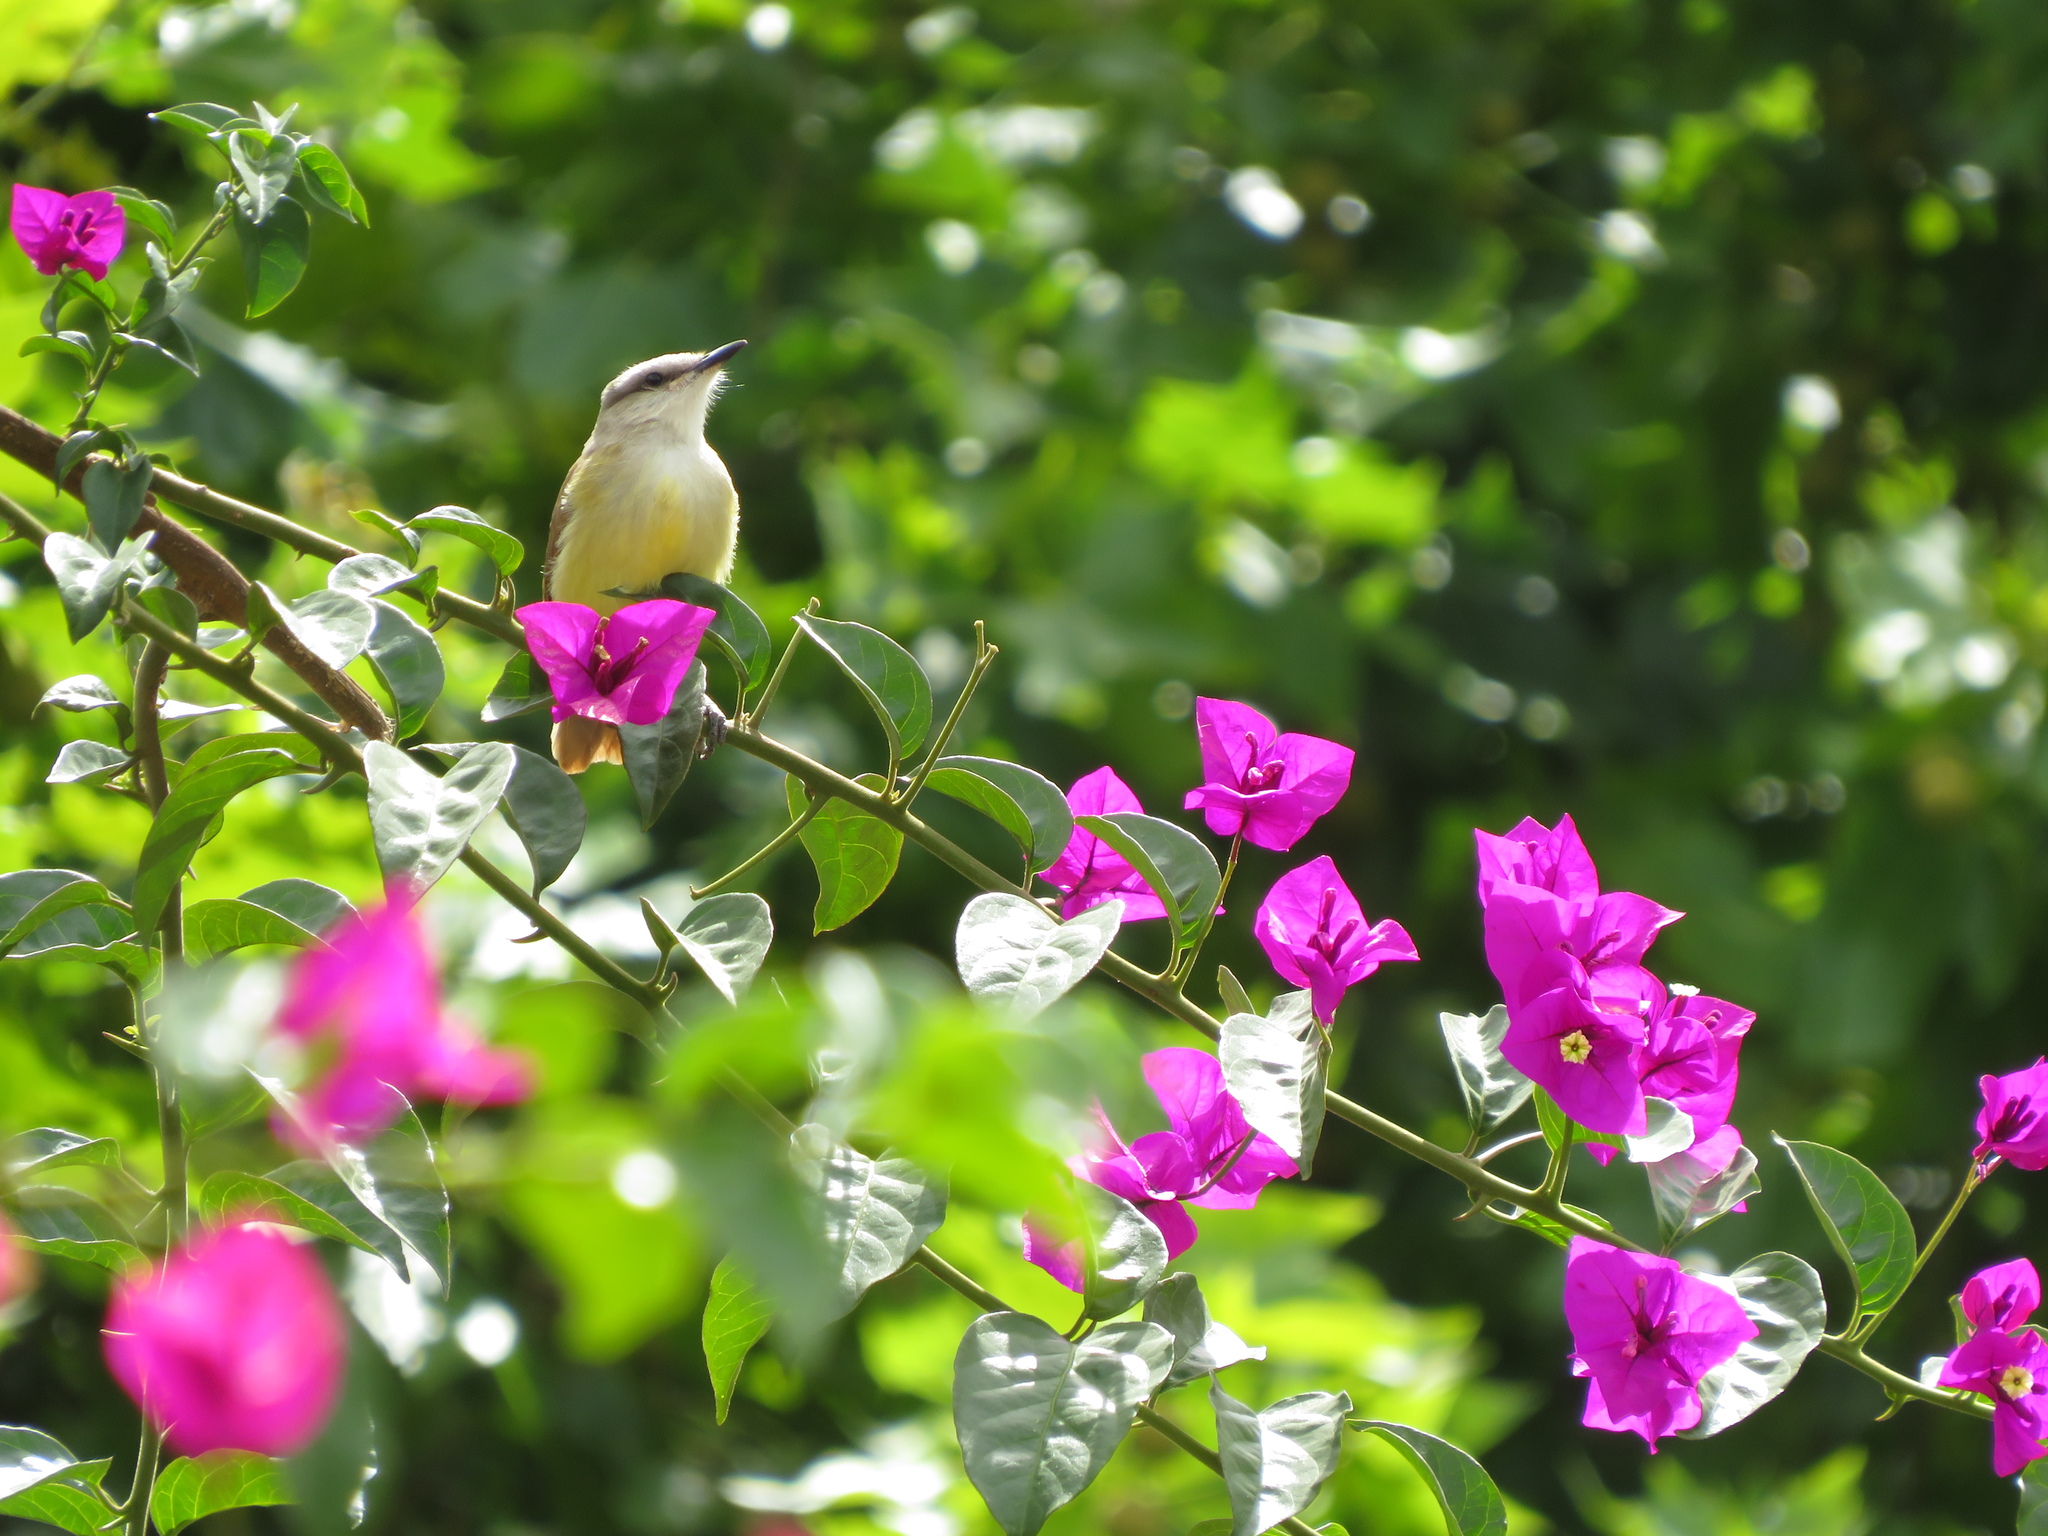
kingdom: Animalia
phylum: Chordata
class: Aves
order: Passeriformes
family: Tyrannidae
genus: Machetornis
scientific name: Machetornis rixosa
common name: Cattle tyrant
